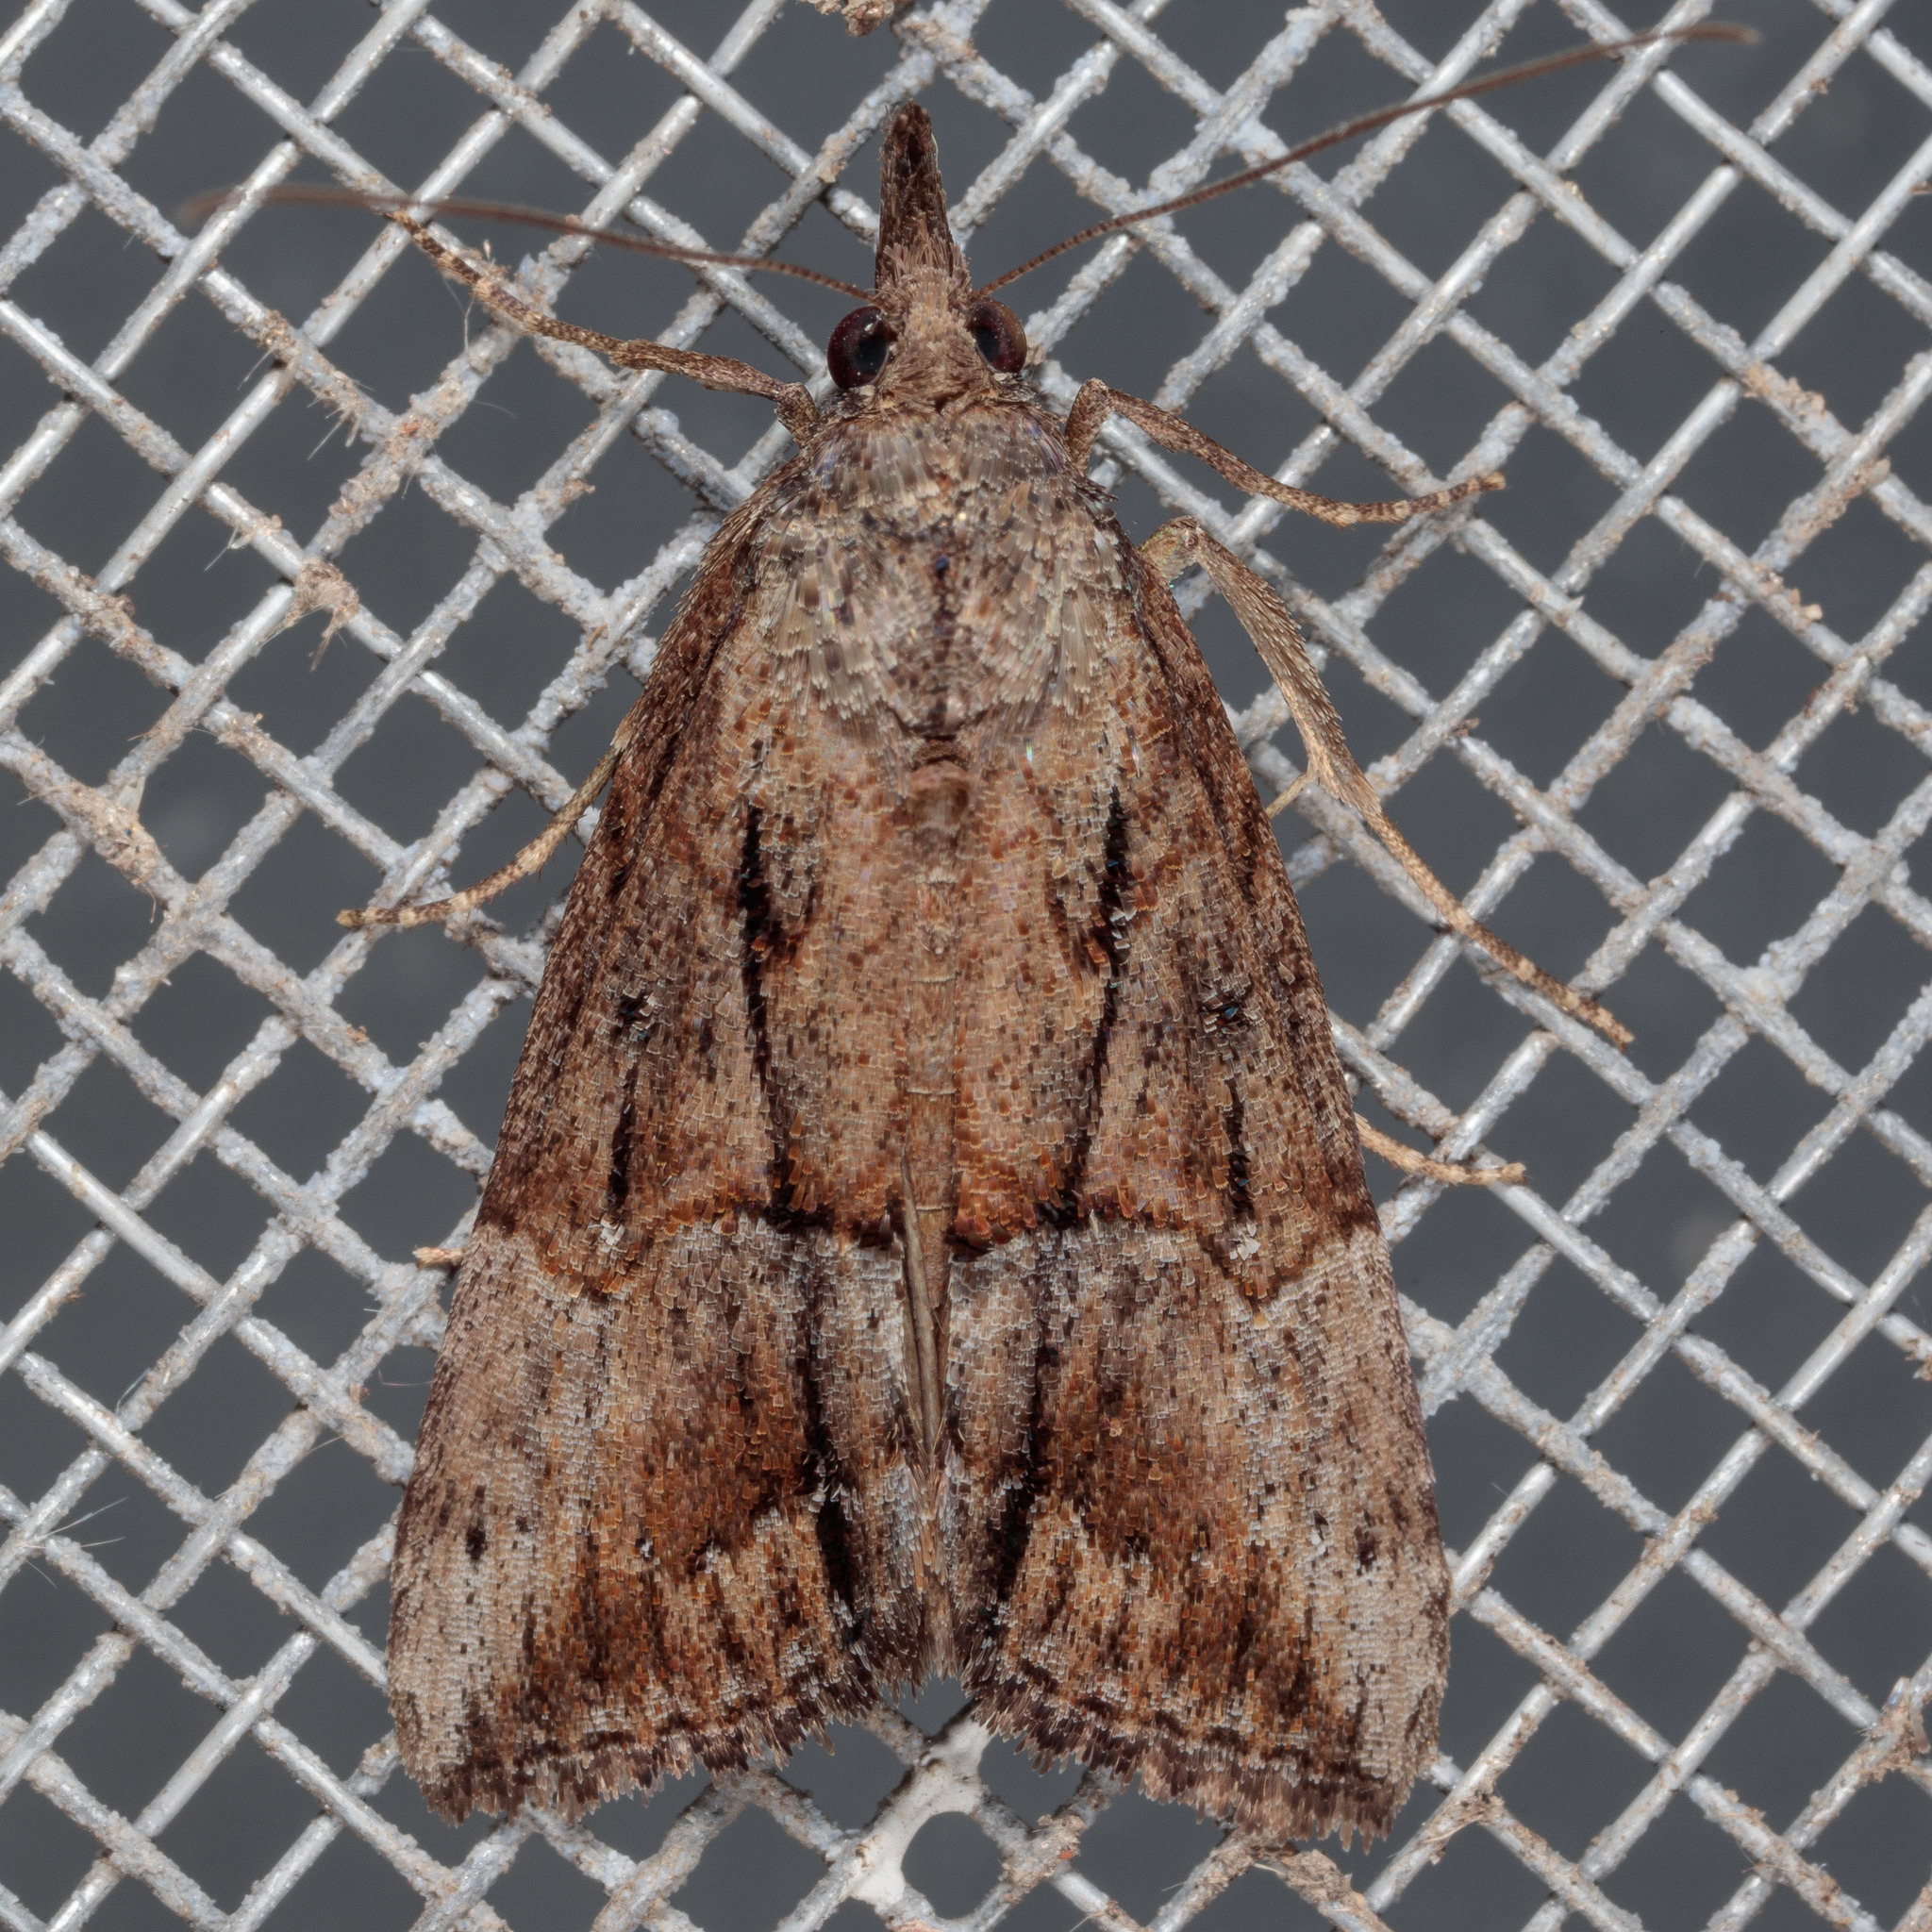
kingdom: Animalia
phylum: Arthropoda
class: Insecta
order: Lepidoptera
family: Erebidae
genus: Hypena
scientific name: Hypena scabra
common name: Green cloverworm
